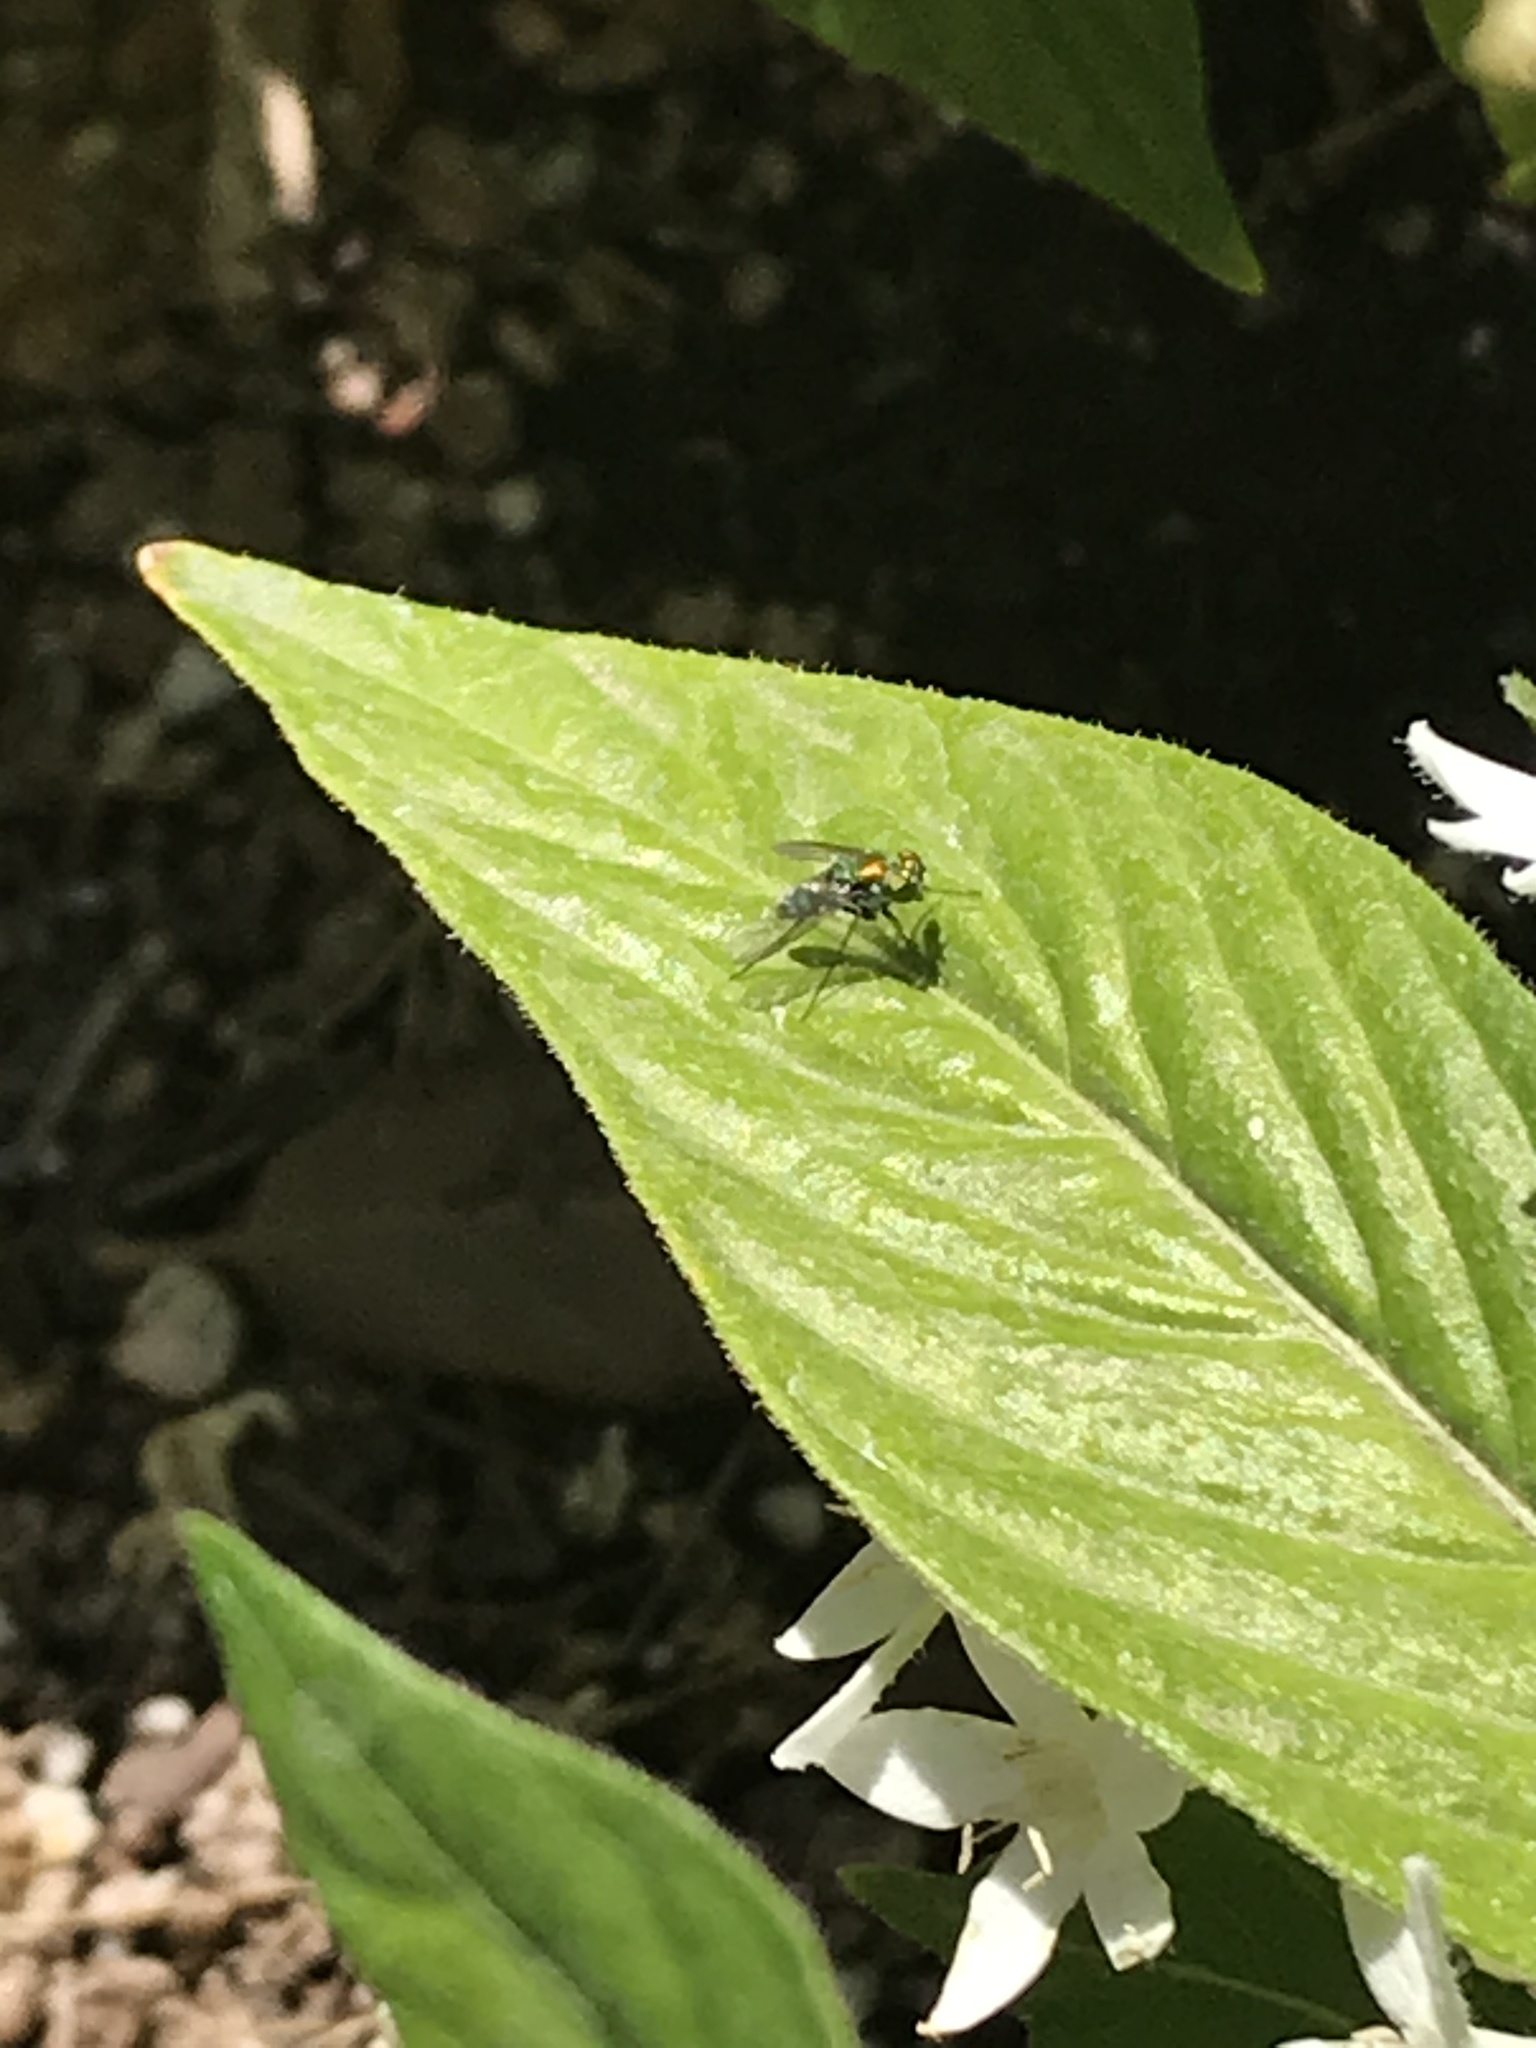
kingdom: Animalia
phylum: Arthropoda
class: Insecta
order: Diptera
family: Dolichopodidae
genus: Condylostylus
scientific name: Condylostylus
